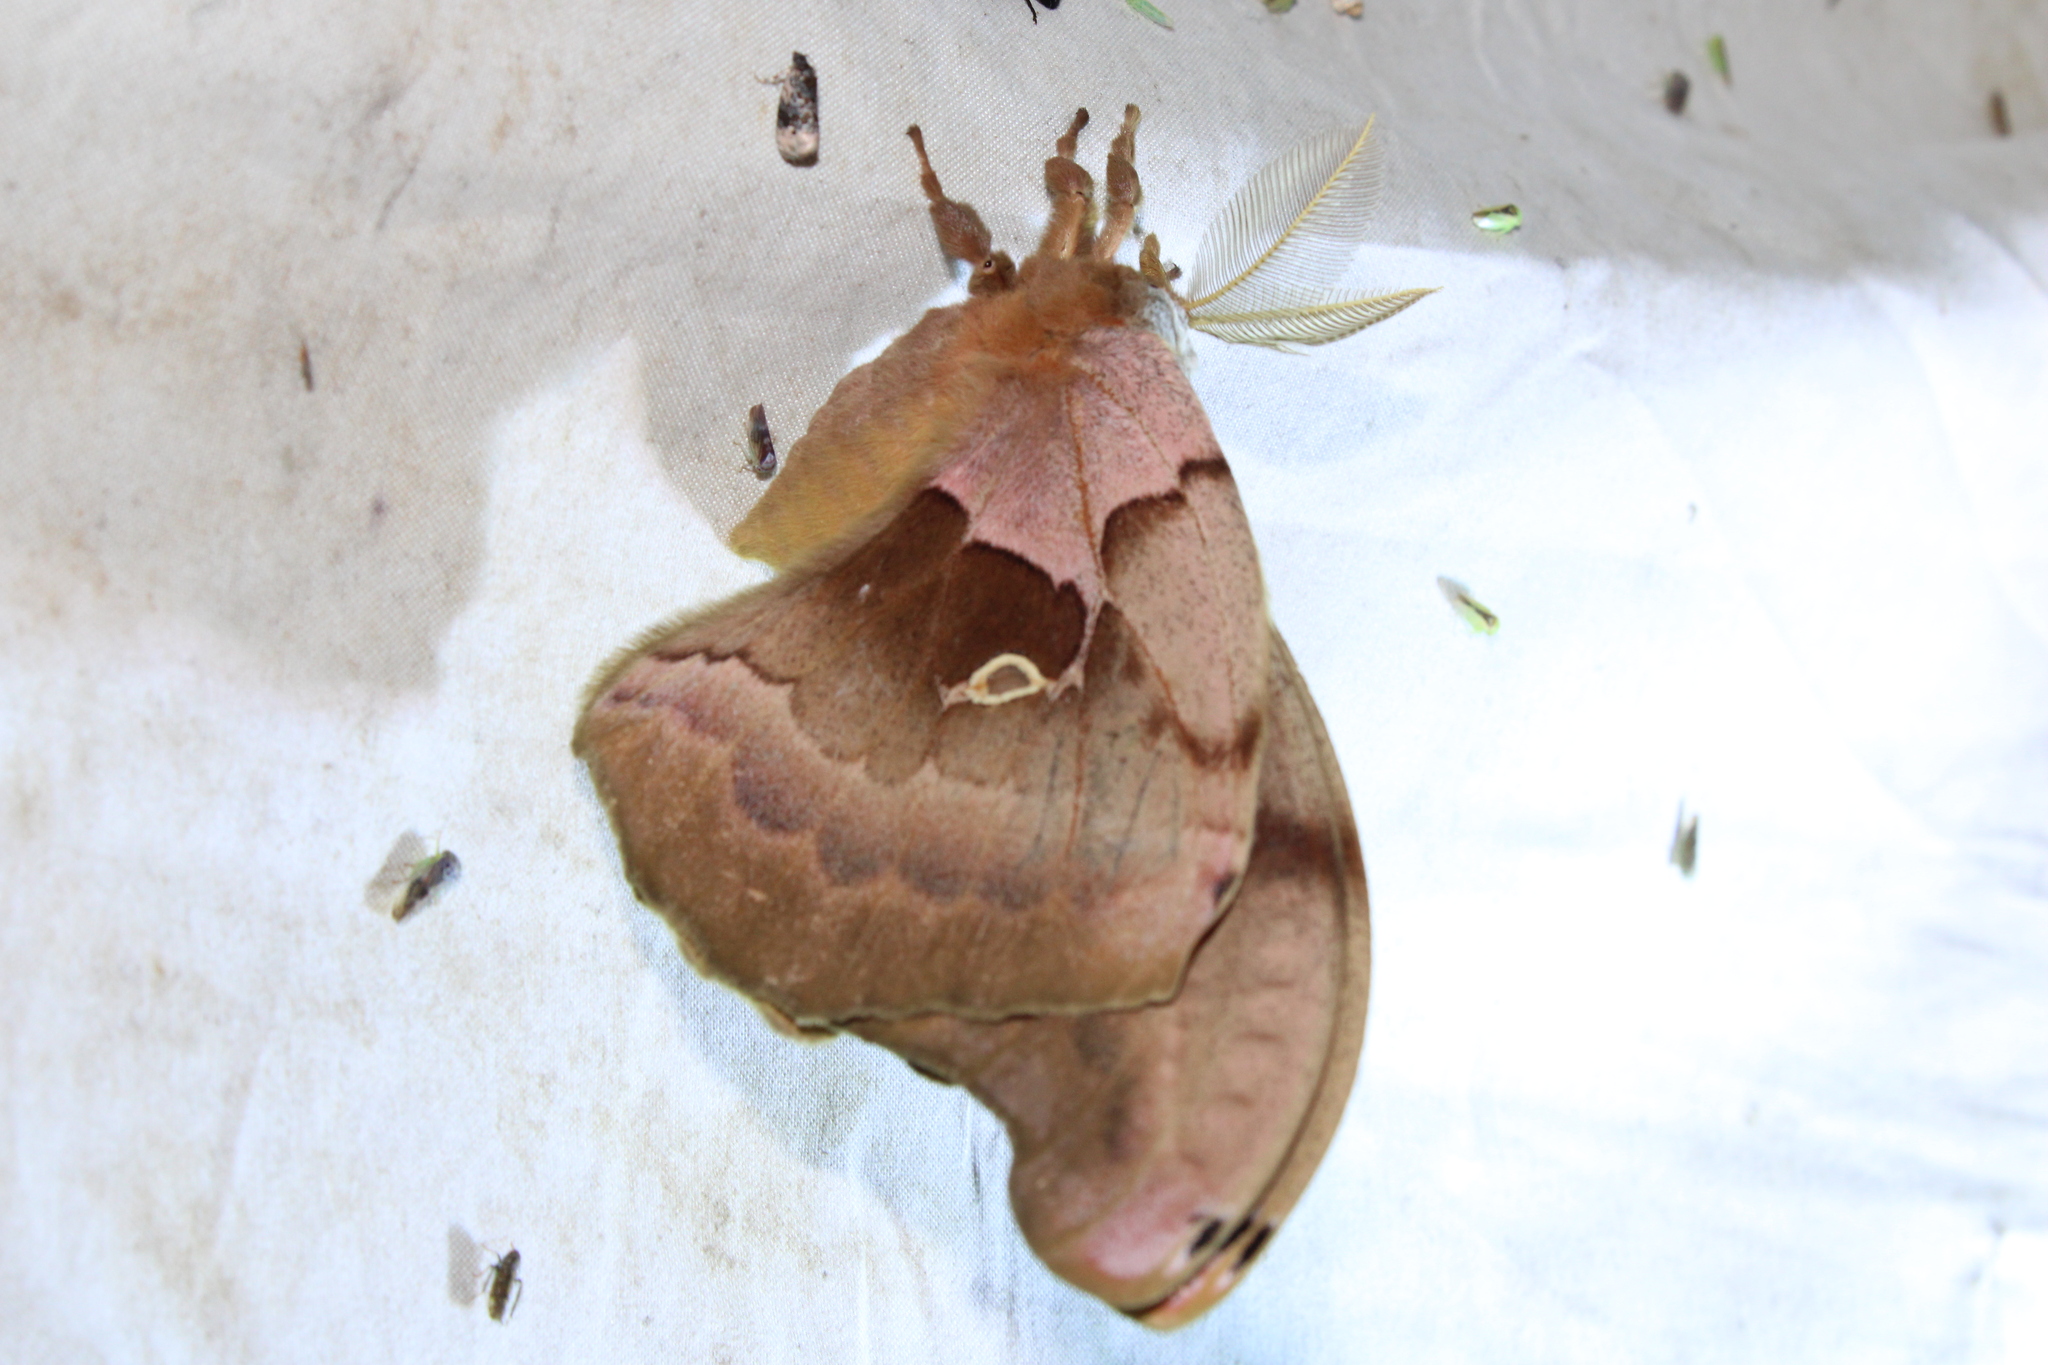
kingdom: Animalia
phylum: Arthropoda
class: Insecta
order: Lepidoptera
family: Saturniidae
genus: Antheraea
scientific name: Antheraea polyphemus
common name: Polyphemus moth
